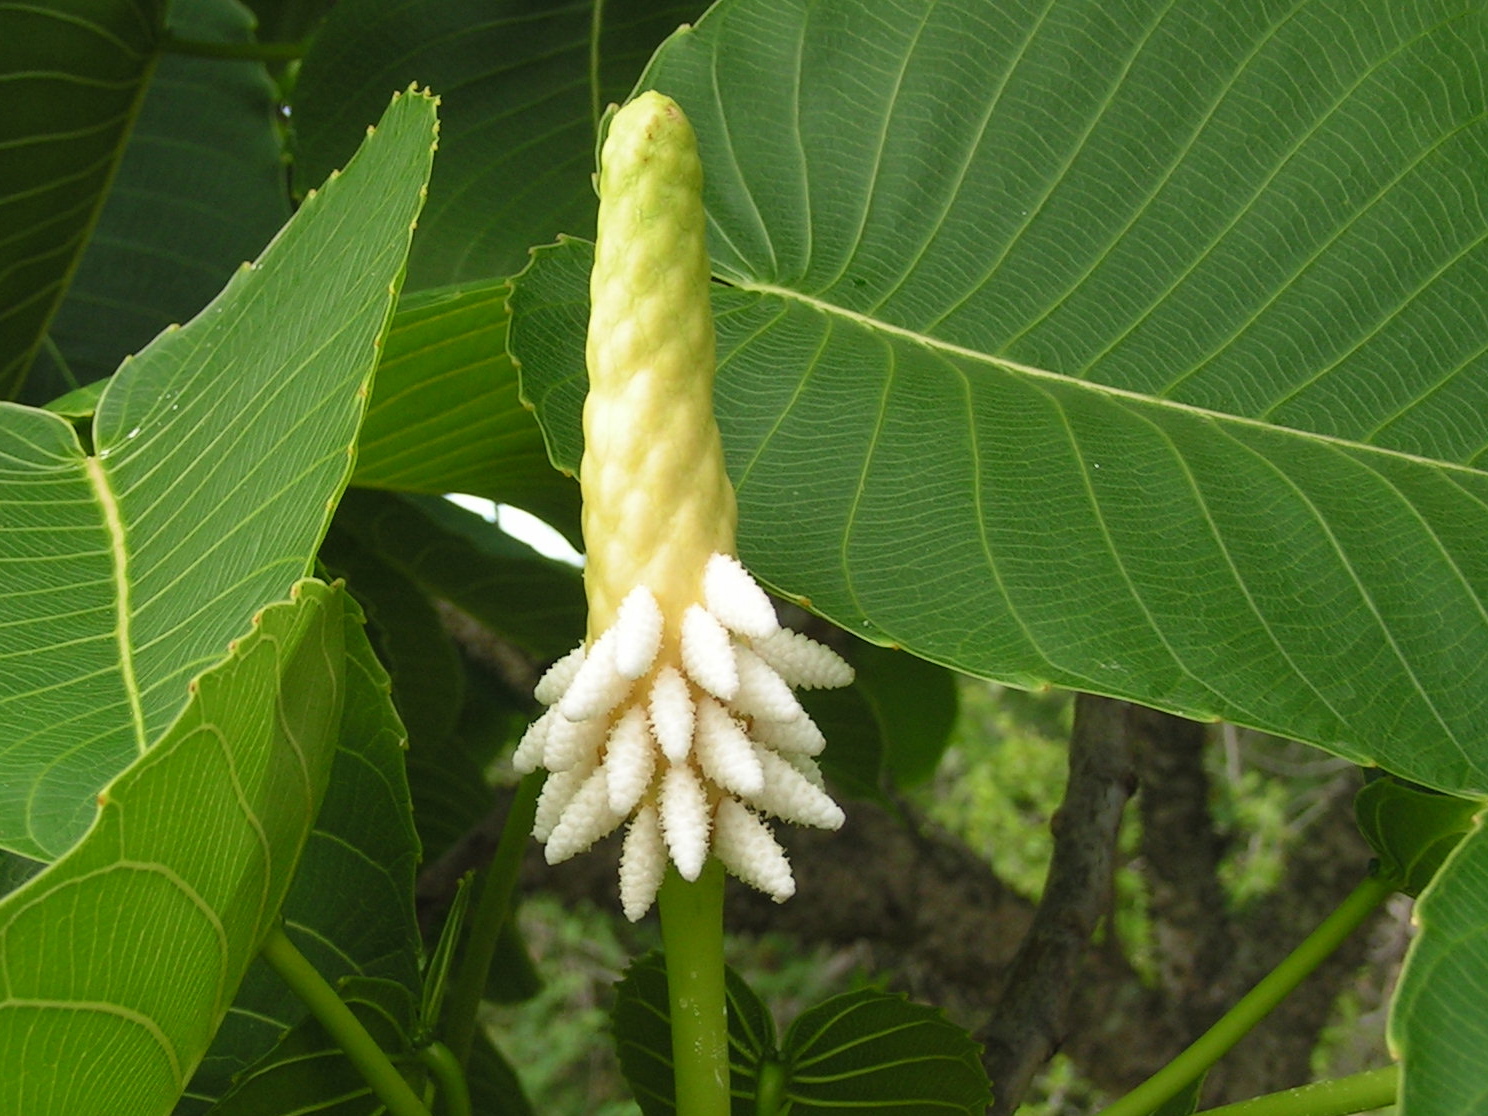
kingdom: Plantae
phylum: Tracheophyta
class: Magnoliopsida
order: Malpighiales
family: Euphorbiaceae
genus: Hura
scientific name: Hura polyandra
